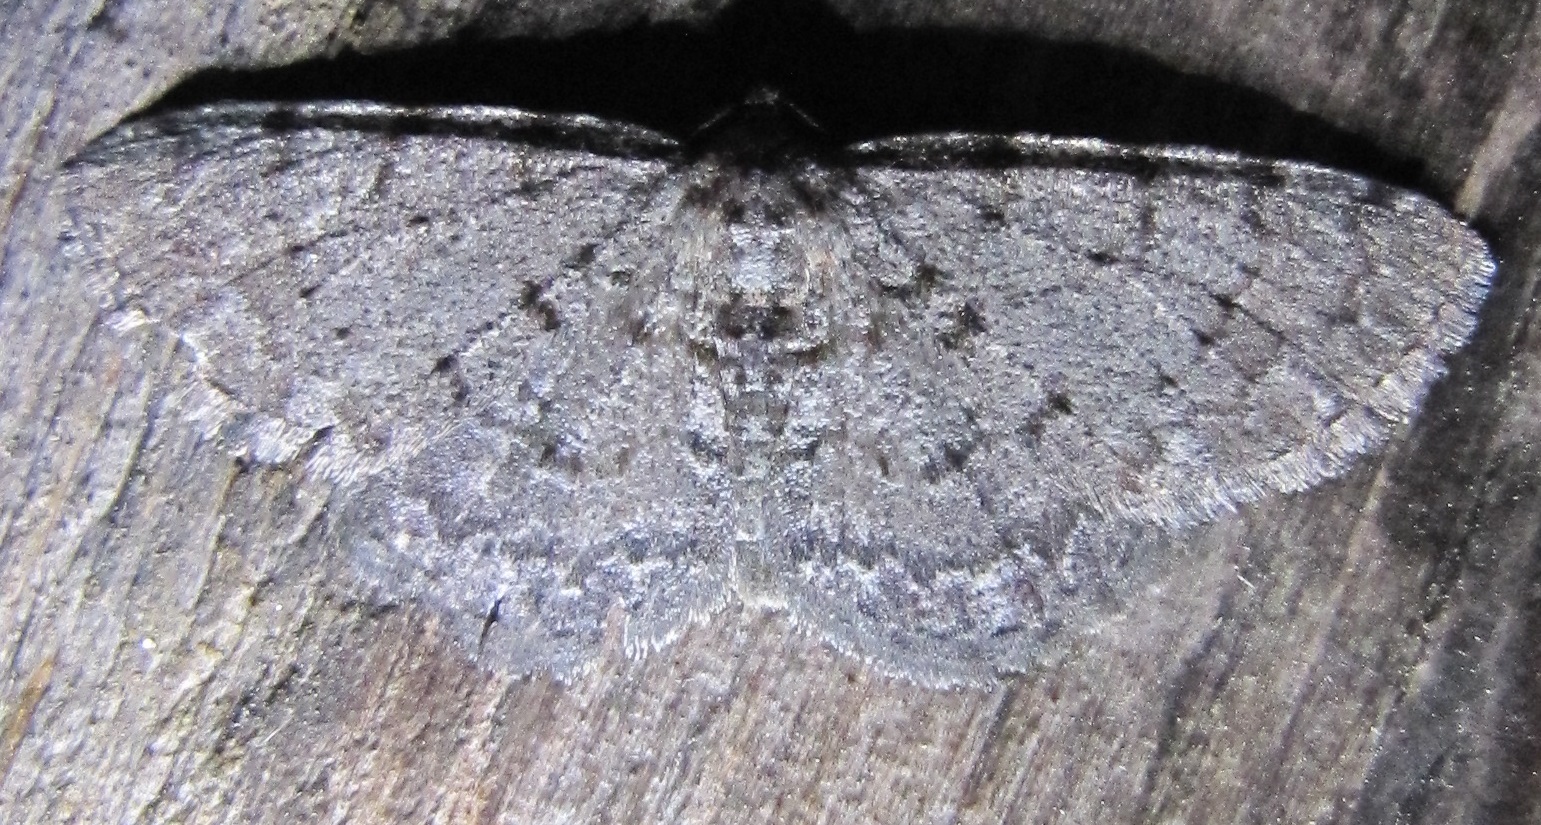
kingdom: Animalia
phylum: Arthropoda
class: Insecta
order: Lepidoptera
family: Geometridae
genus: Aethalura
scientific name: Aethalura intertexta
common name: Four-barred gray
